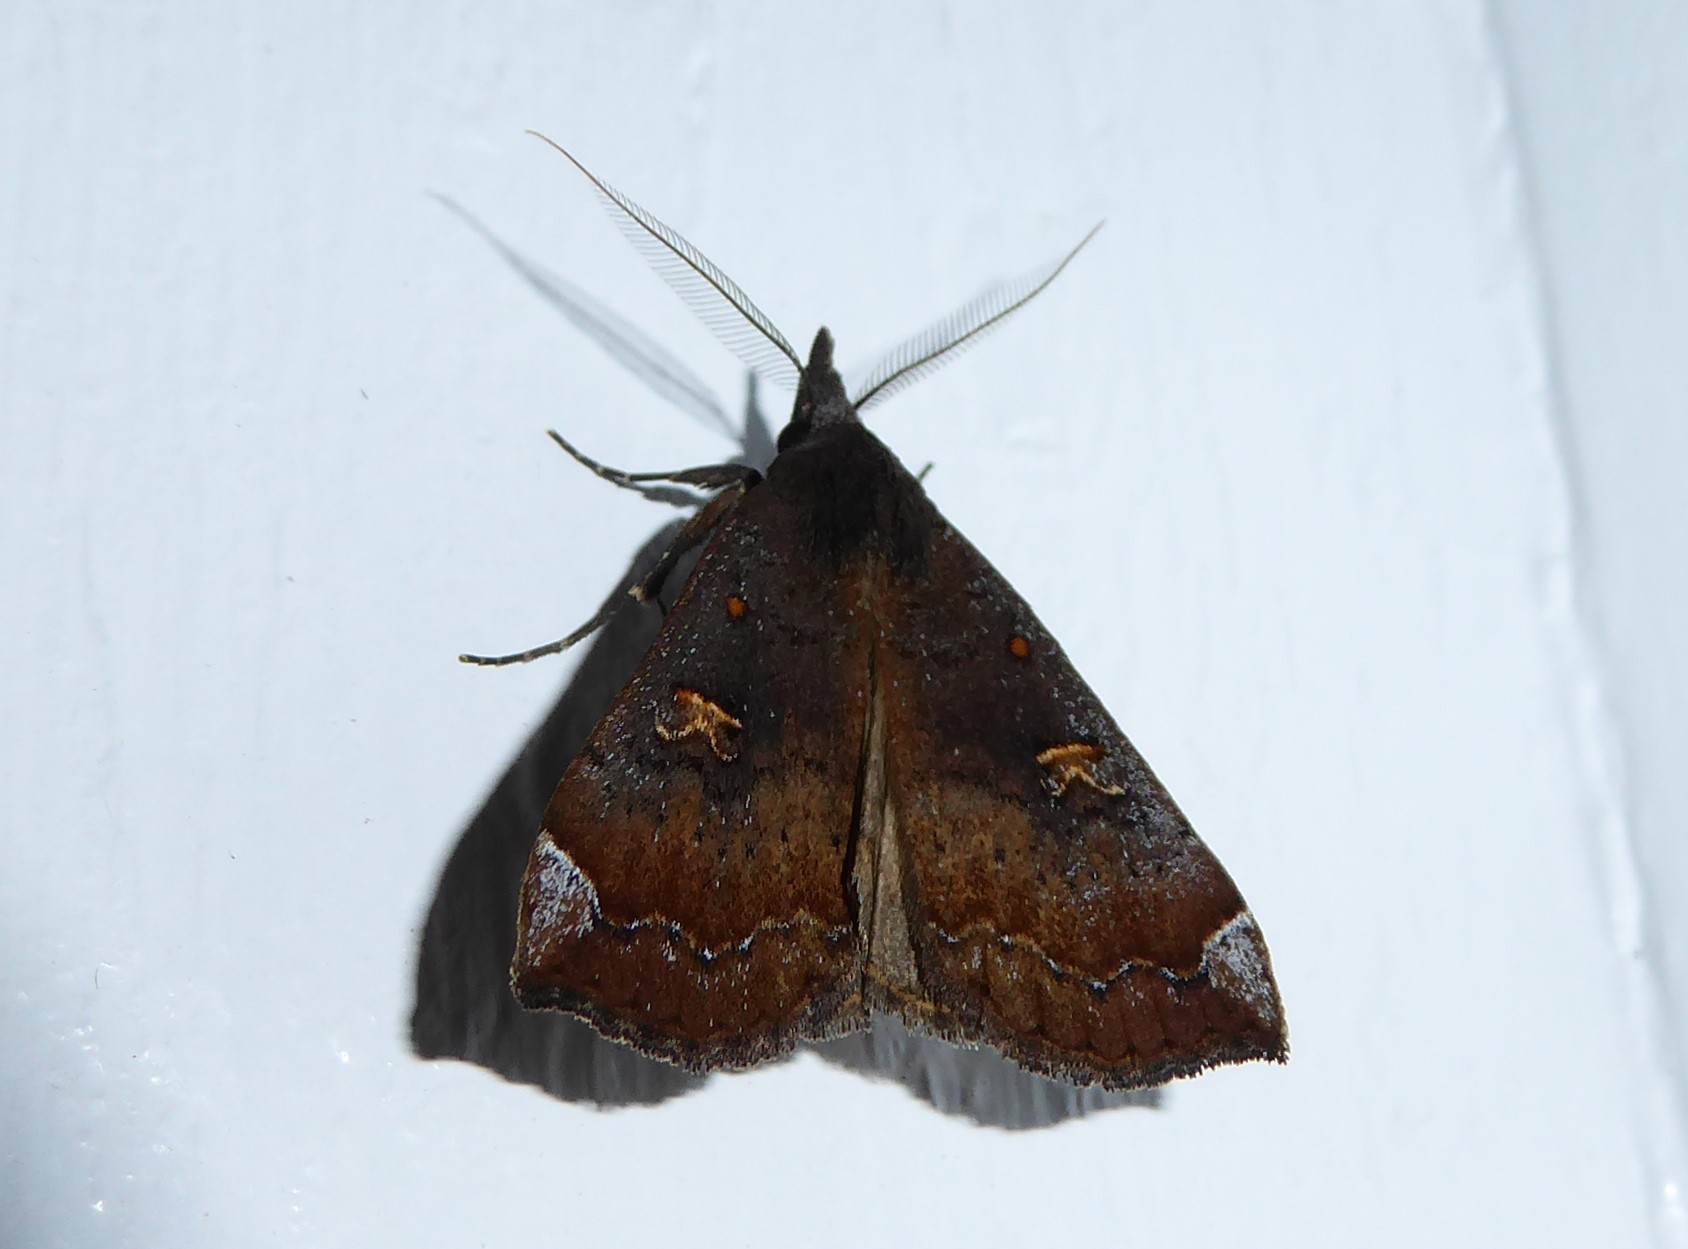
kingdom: Animalia
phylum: Arthropoda
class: Insecta
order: Lepidoptera
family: Erebidae
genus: Rhapsa
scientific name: Rhapsa scotosialis
